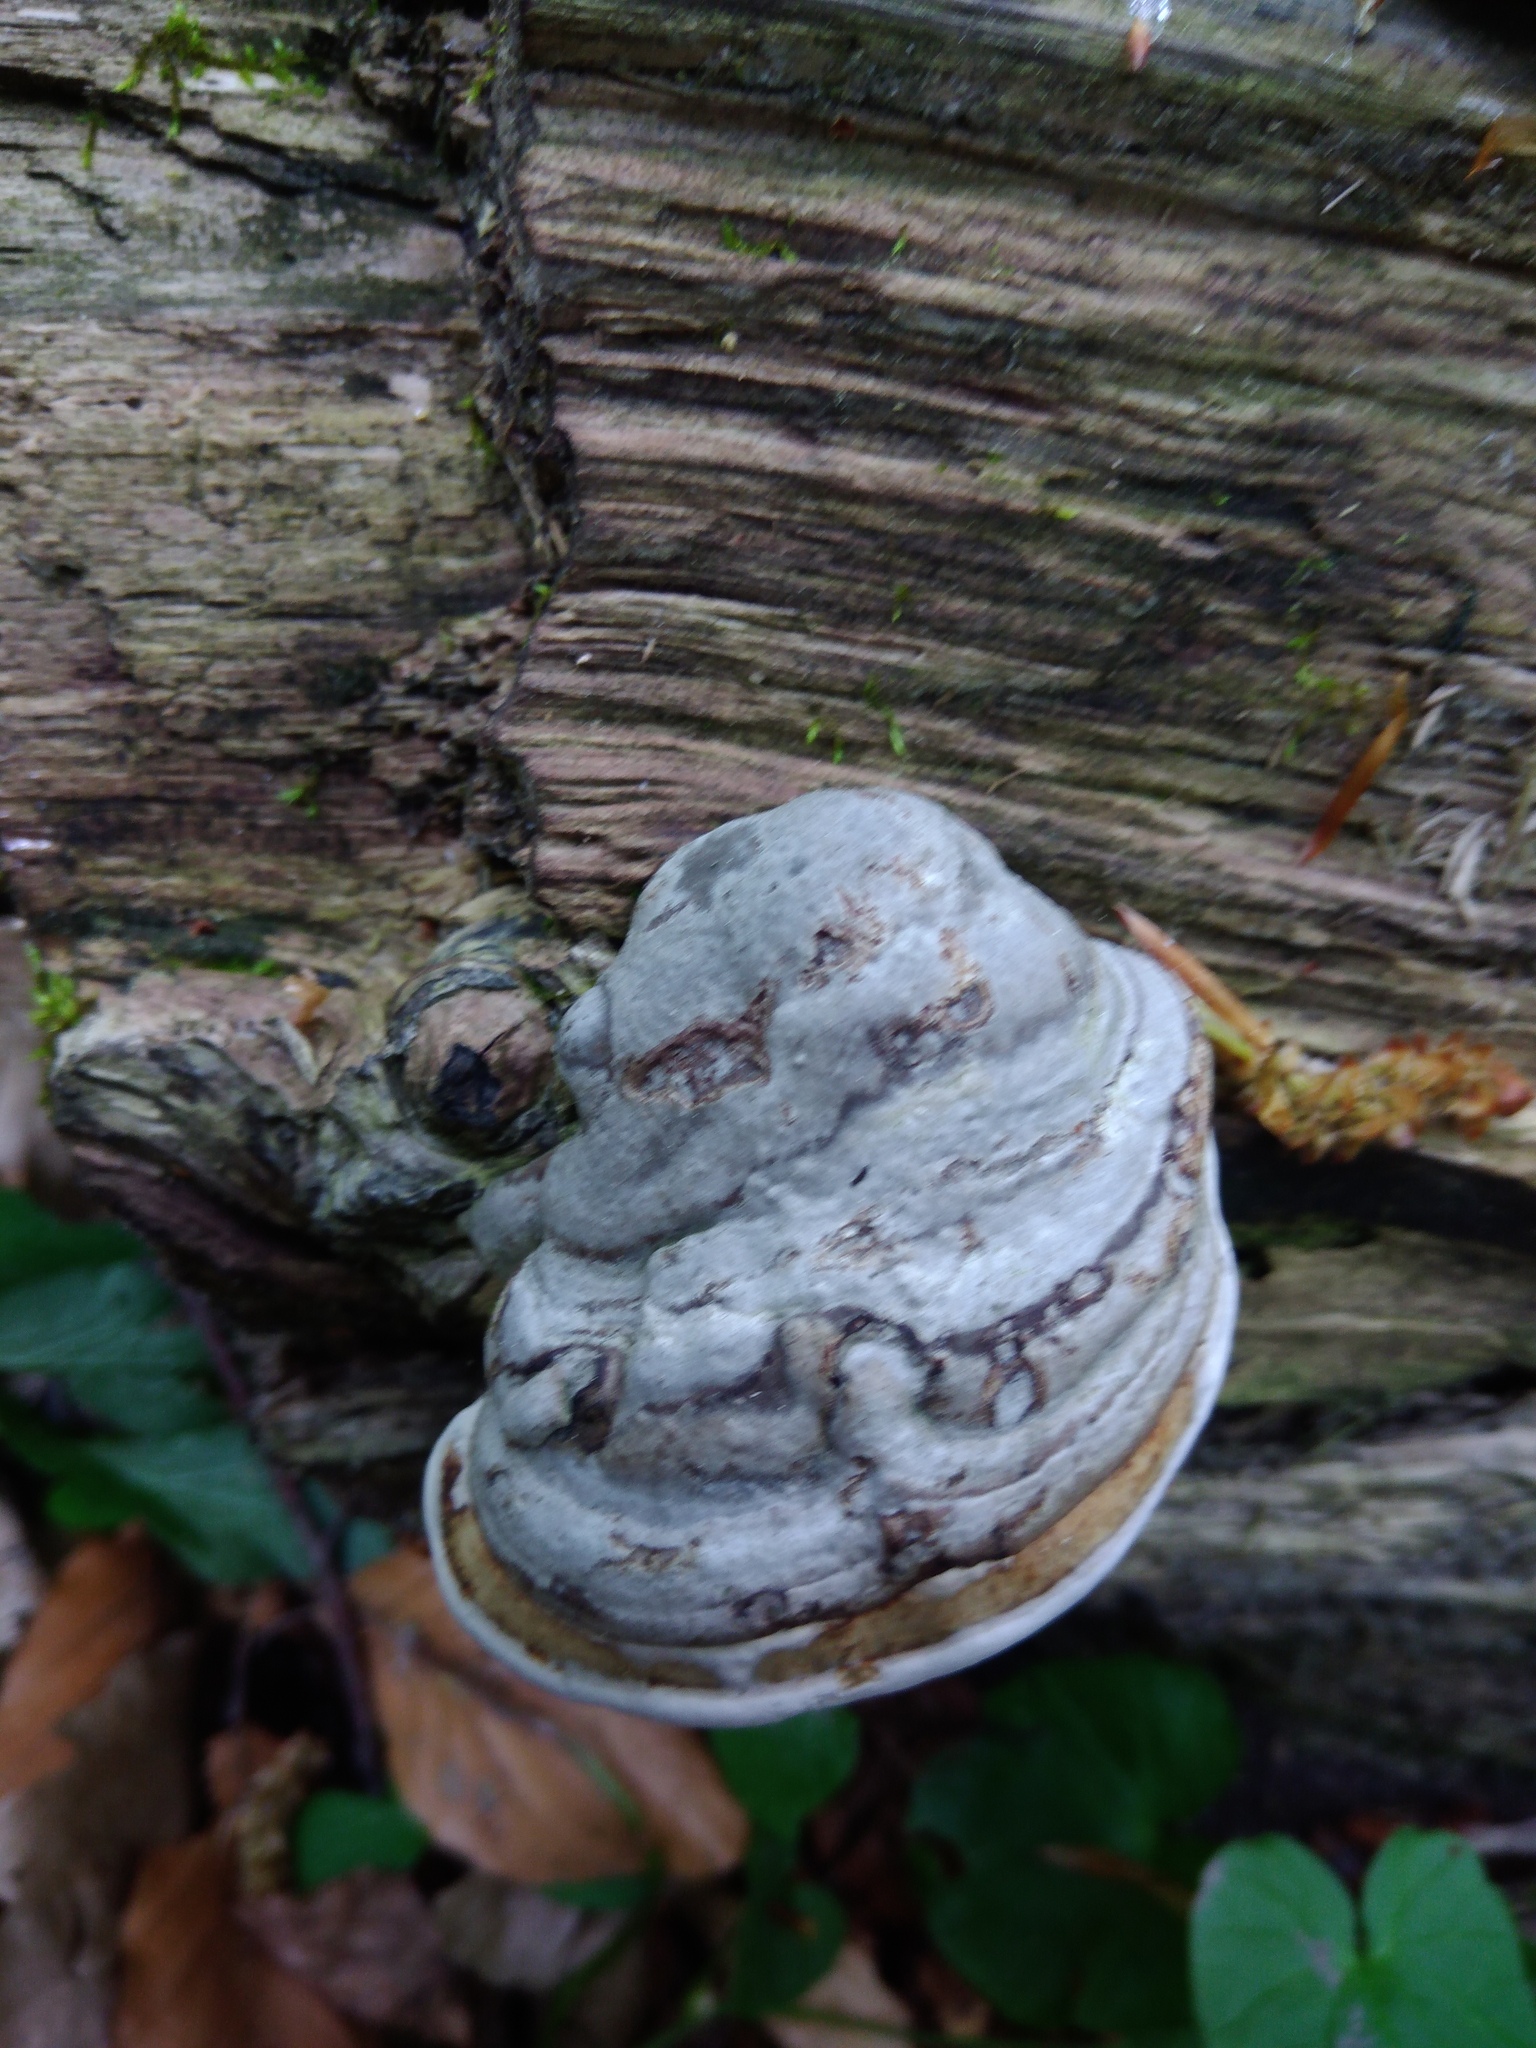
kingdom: Fungi
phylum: Basidiomycota
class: Agaricomycetes
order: Polyporales
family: Polyporaceae
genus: Fomes
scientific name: Fomes fomentarius
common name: Hoof fungus
